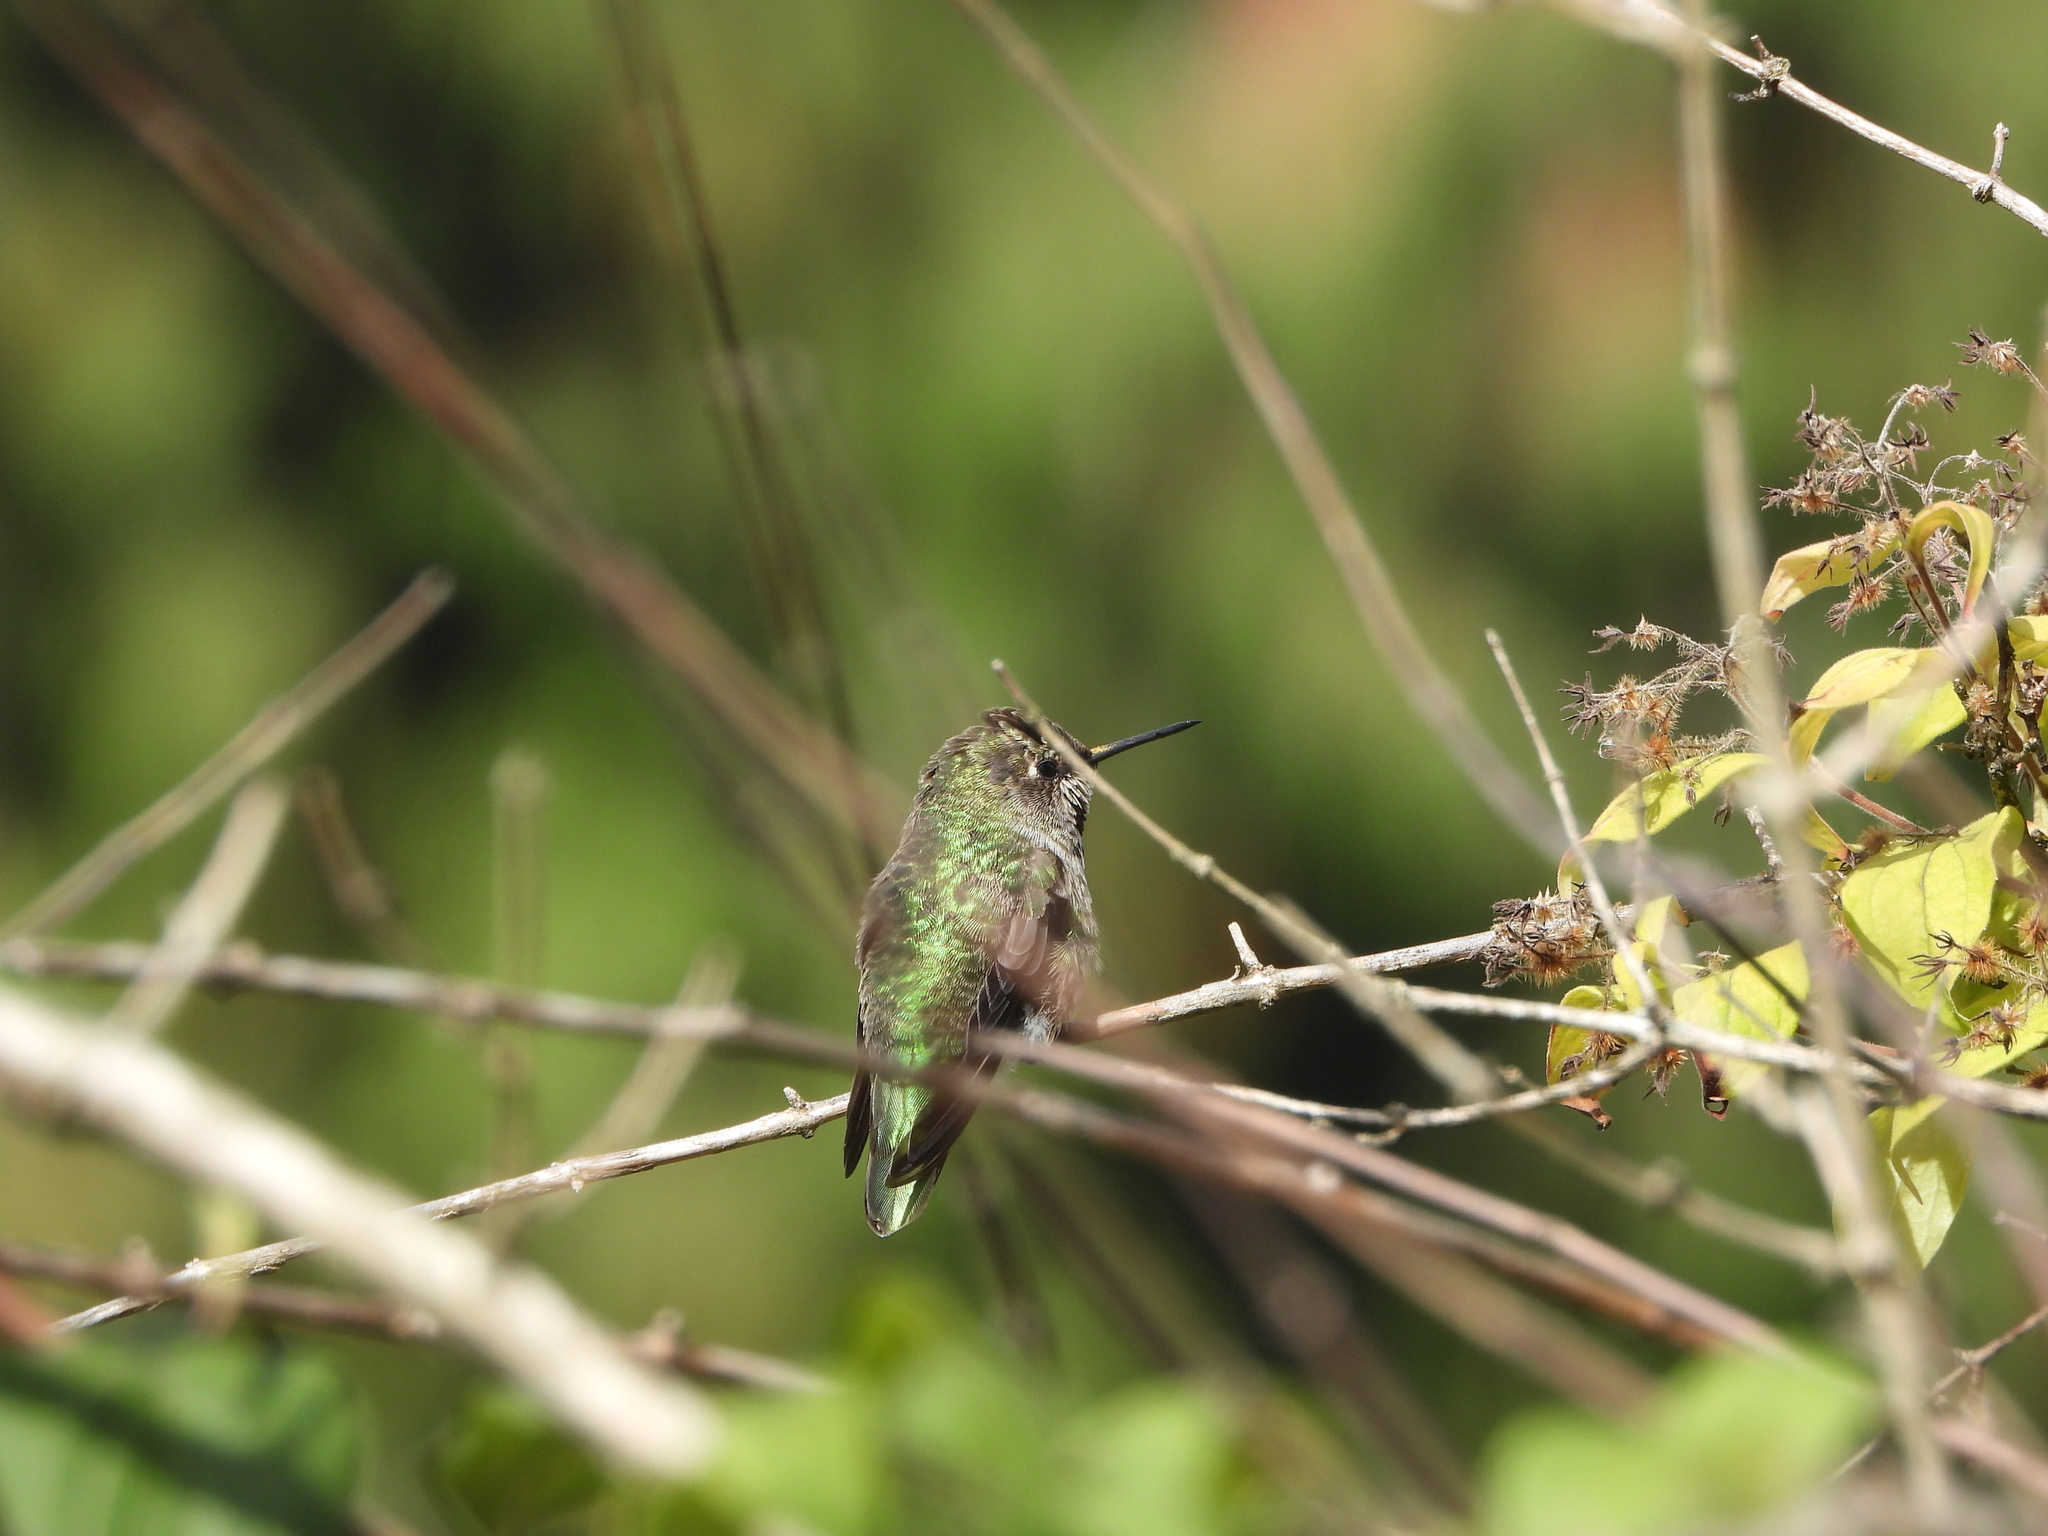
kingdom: Animalia
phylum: Chordata
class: Aves
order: Apodiformes
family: Trochilidae
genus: Calypte
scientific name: Calypte anna
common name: Anna's hummingbird
